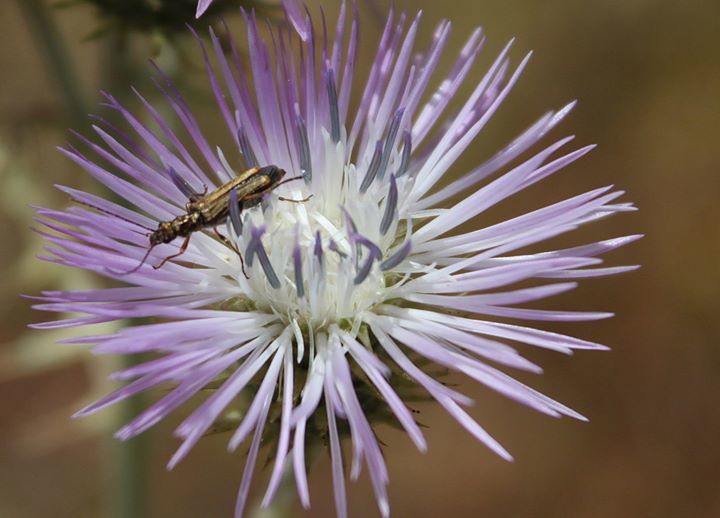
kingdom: Plantae
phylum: Tracheophyta
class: Magnoliopsida
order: Asterales
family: Asteraceae
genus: Galactites
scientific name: Galactites tomentosa
